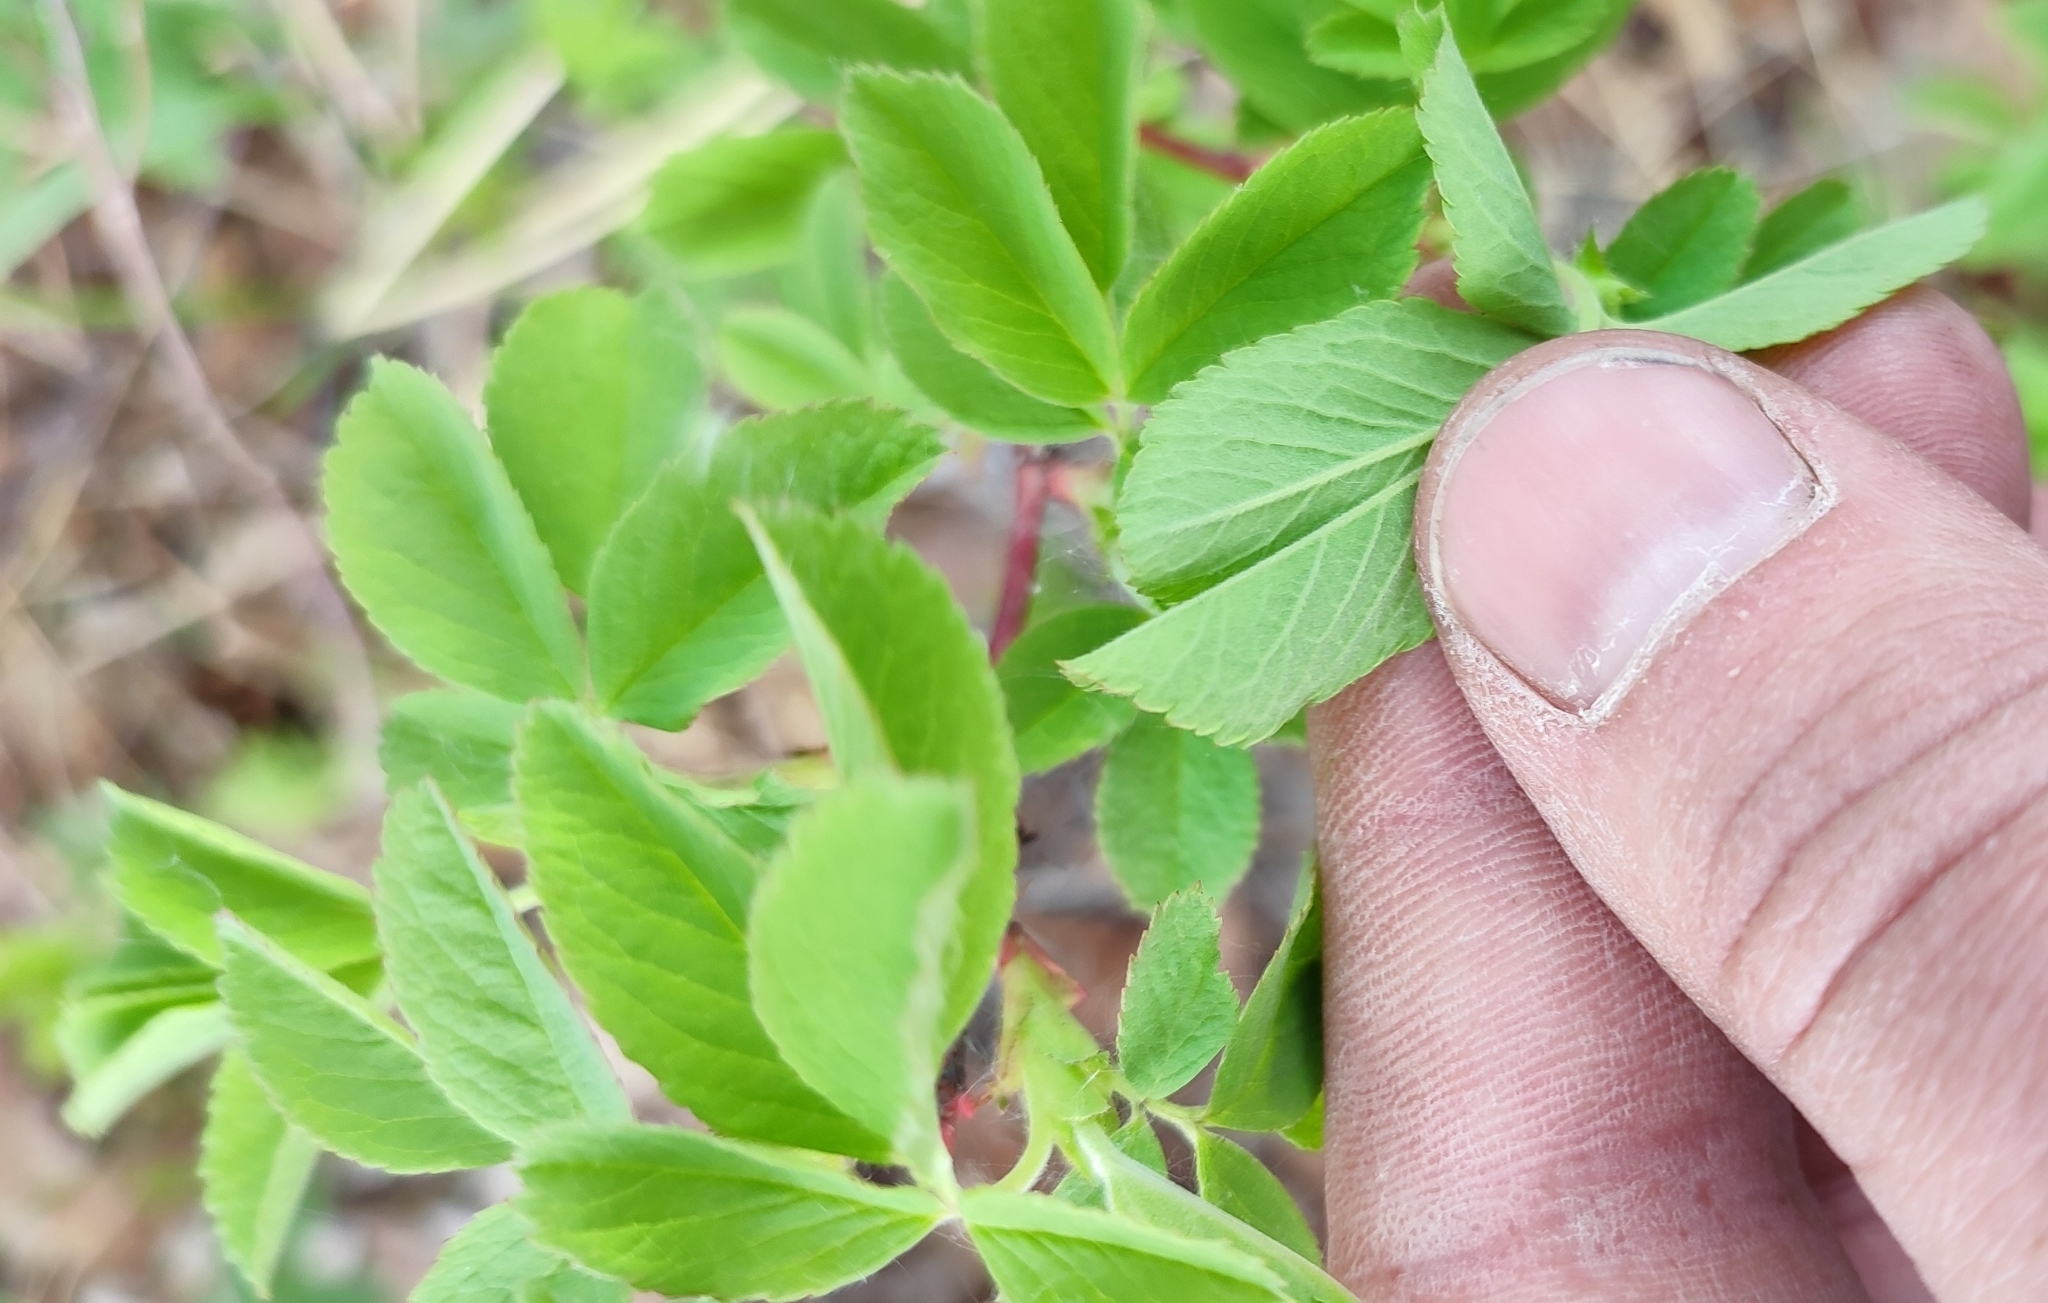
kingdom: Plantae
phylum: Tracheophyta
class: Magnoliopsida
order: Rosales
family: Rosaceae
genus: Rosa
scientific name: Rosa majalis
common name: Cinnamon rose
